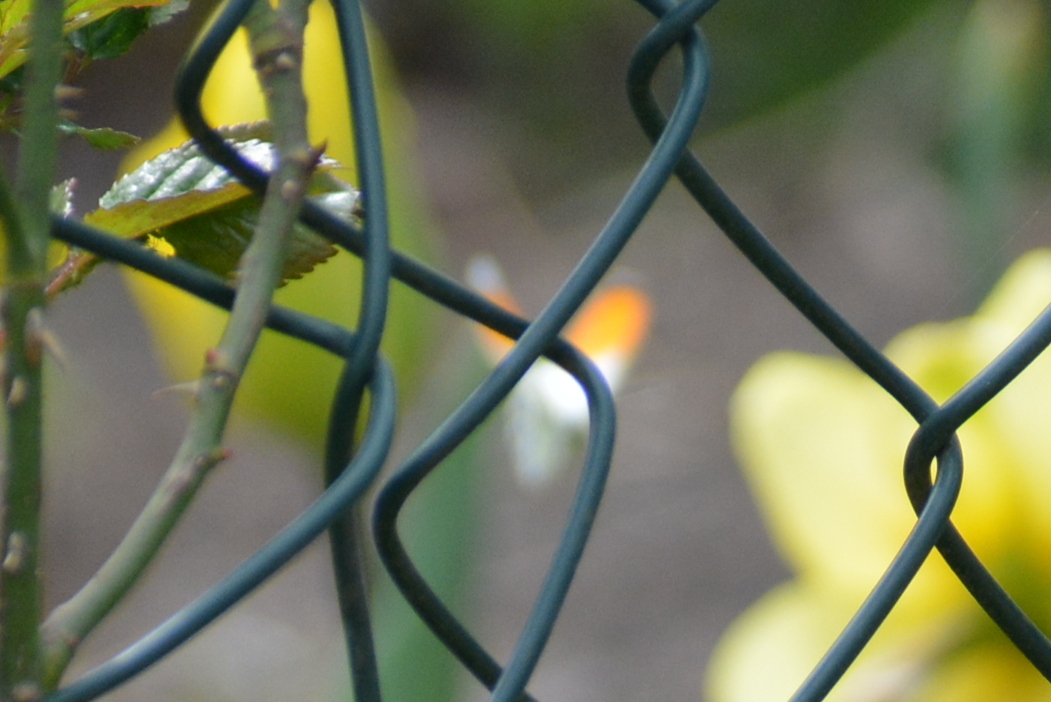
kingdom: Animalia
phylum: Arthropoda
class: Insecta
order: Lepidoptera
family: Pieridae
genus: Anthocharis
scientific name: Anthocharis cardamines
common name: Orange-tip
